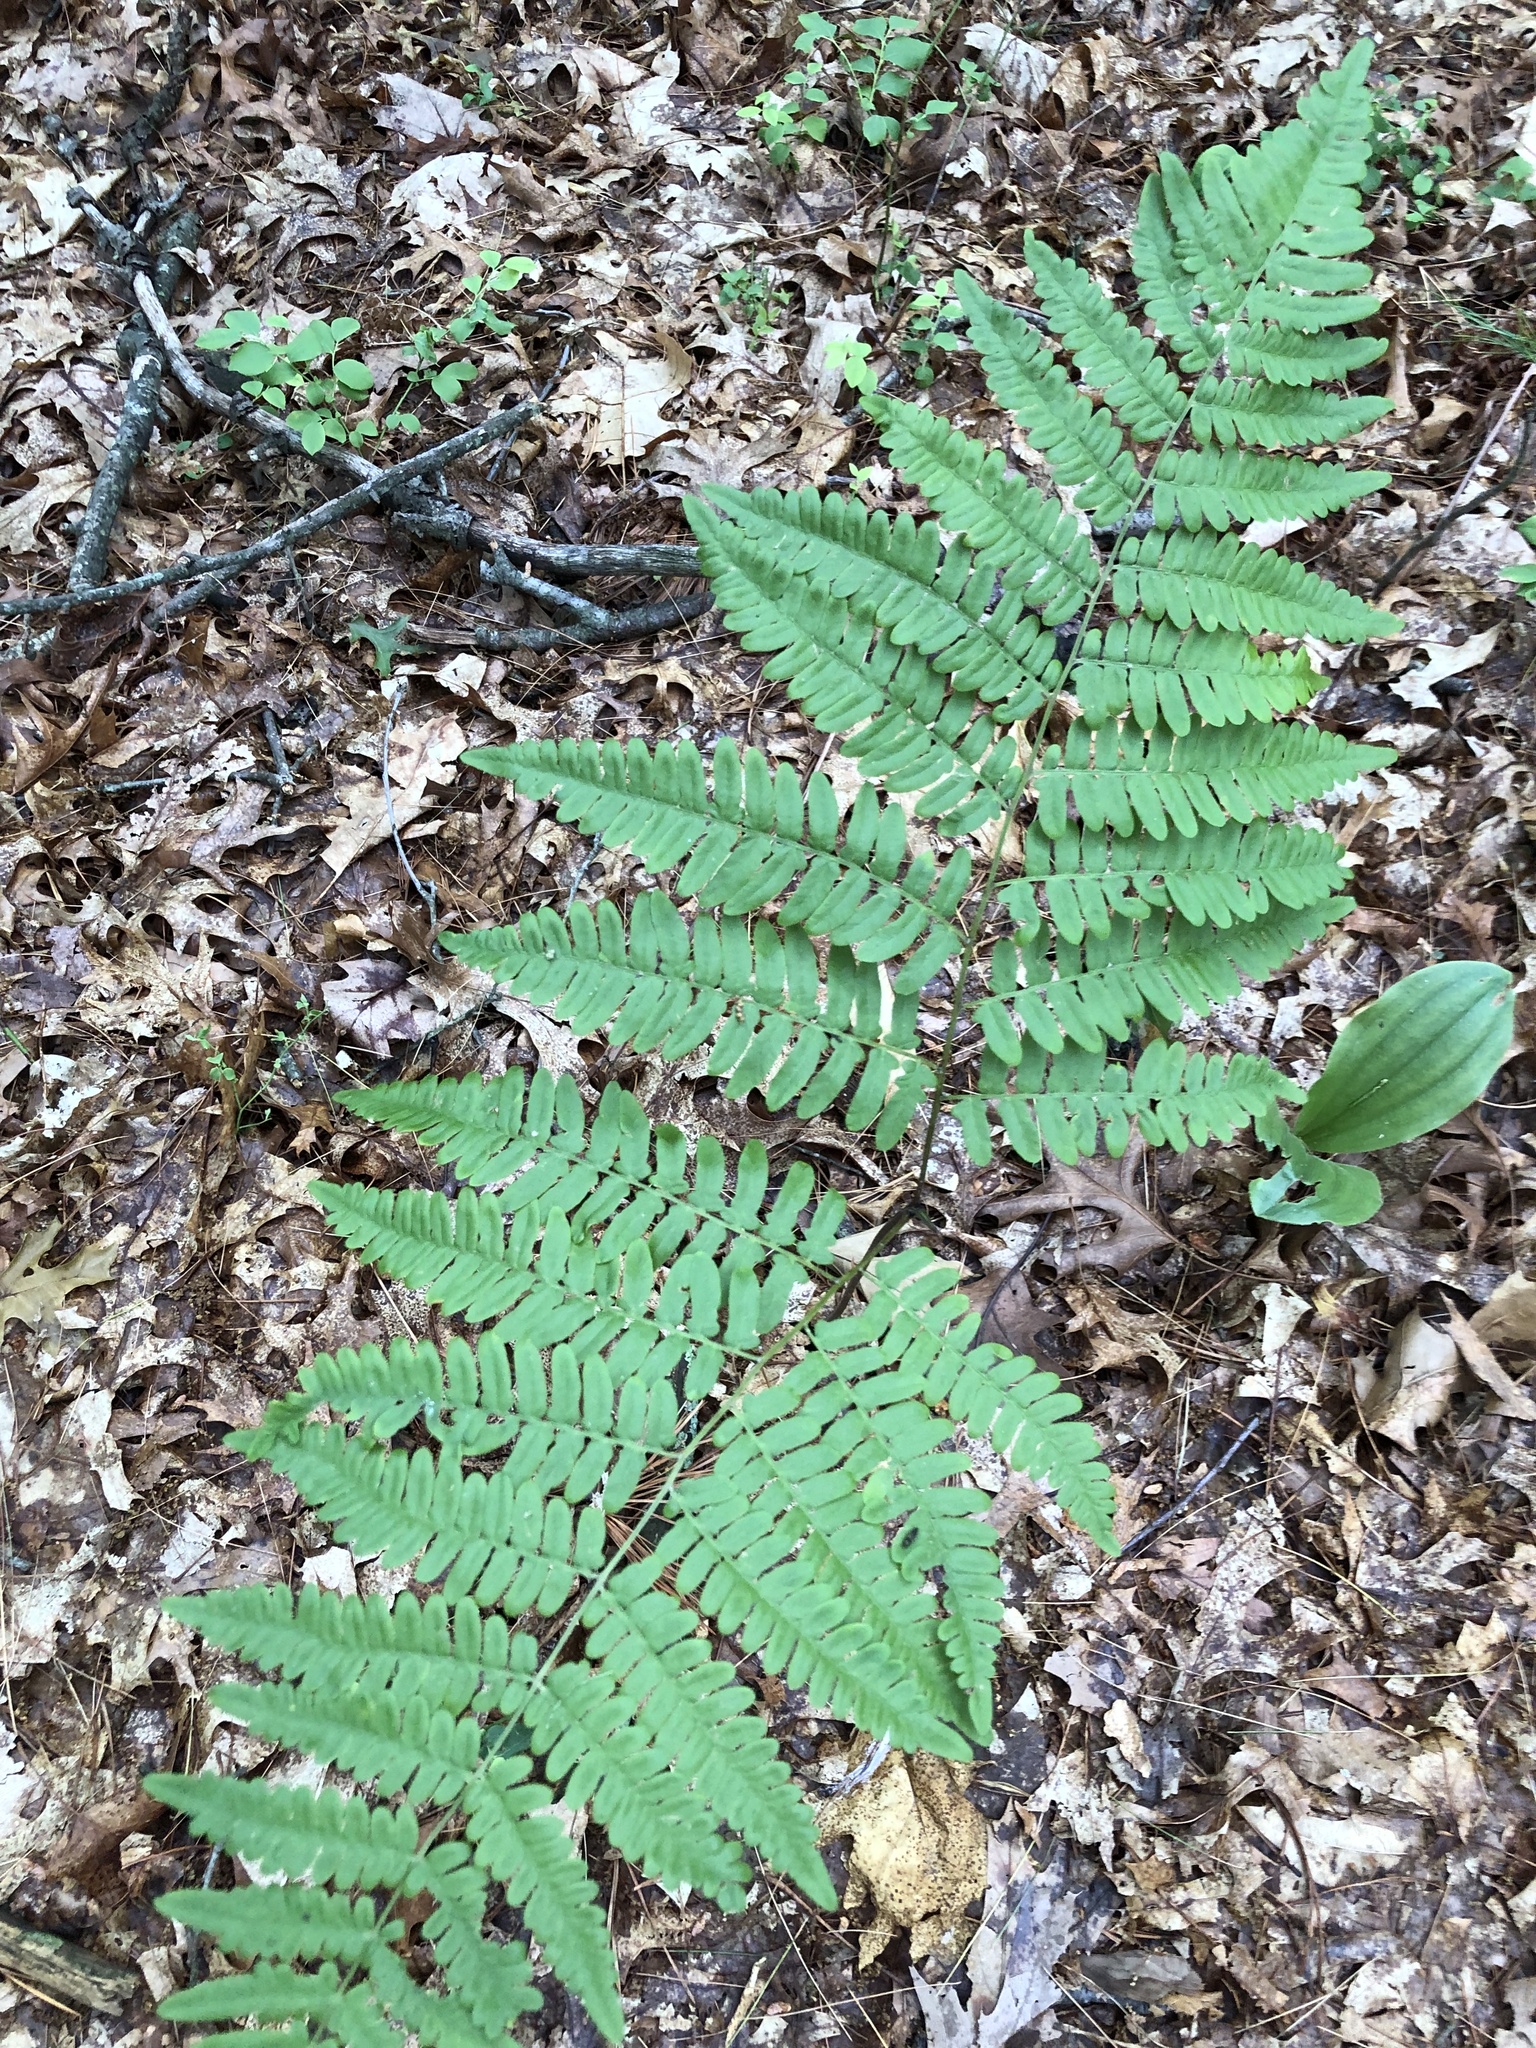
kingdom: Plantae
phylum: Tracheophyta
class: Polypodiopsida
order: Polypodiales
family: Dennstaedtiaceae
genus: Pteridium
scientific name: Pteridium aquilinum
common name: Bracken
